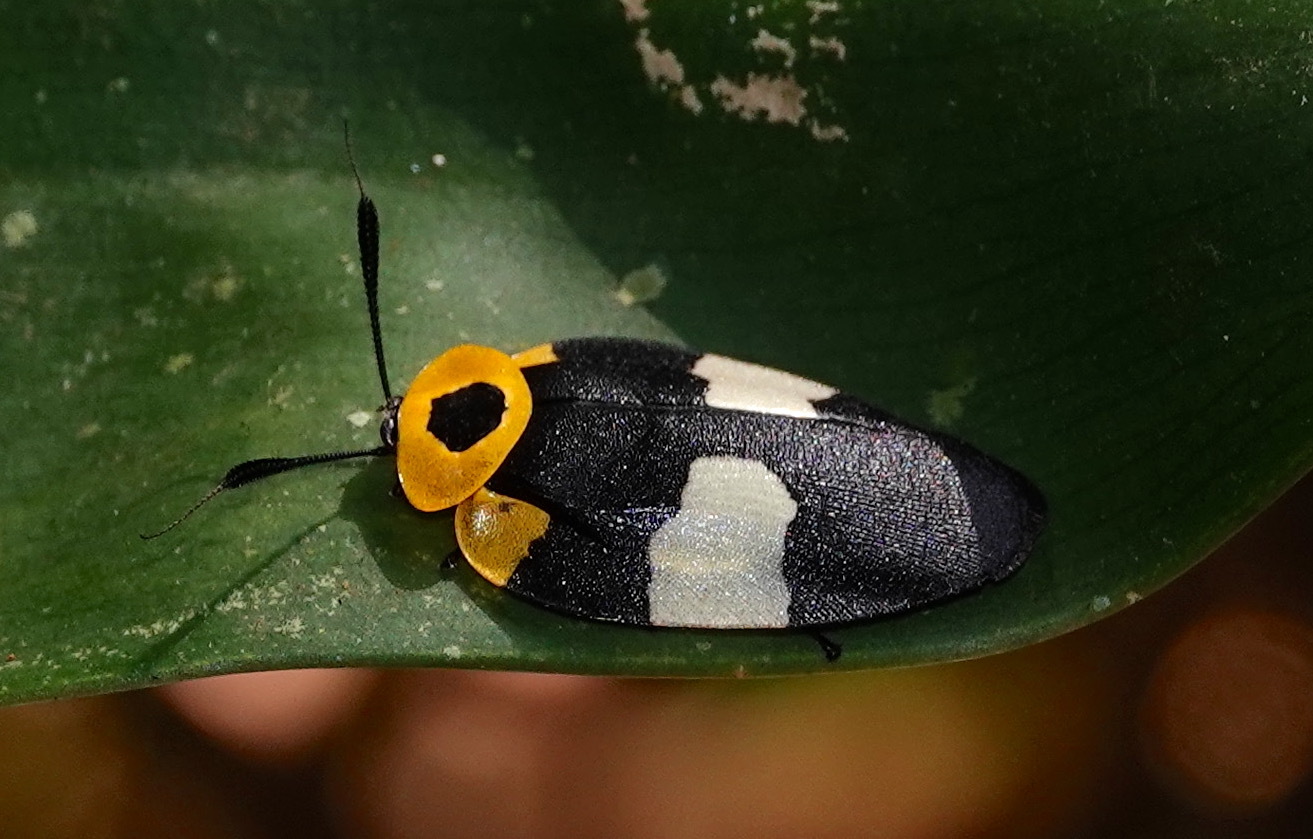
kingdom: Animalia
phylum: Arthropoda
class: Insecta
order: Blattodea
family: Ectobiidae
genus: Eushelfordia
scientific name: Eushelfordia pica
